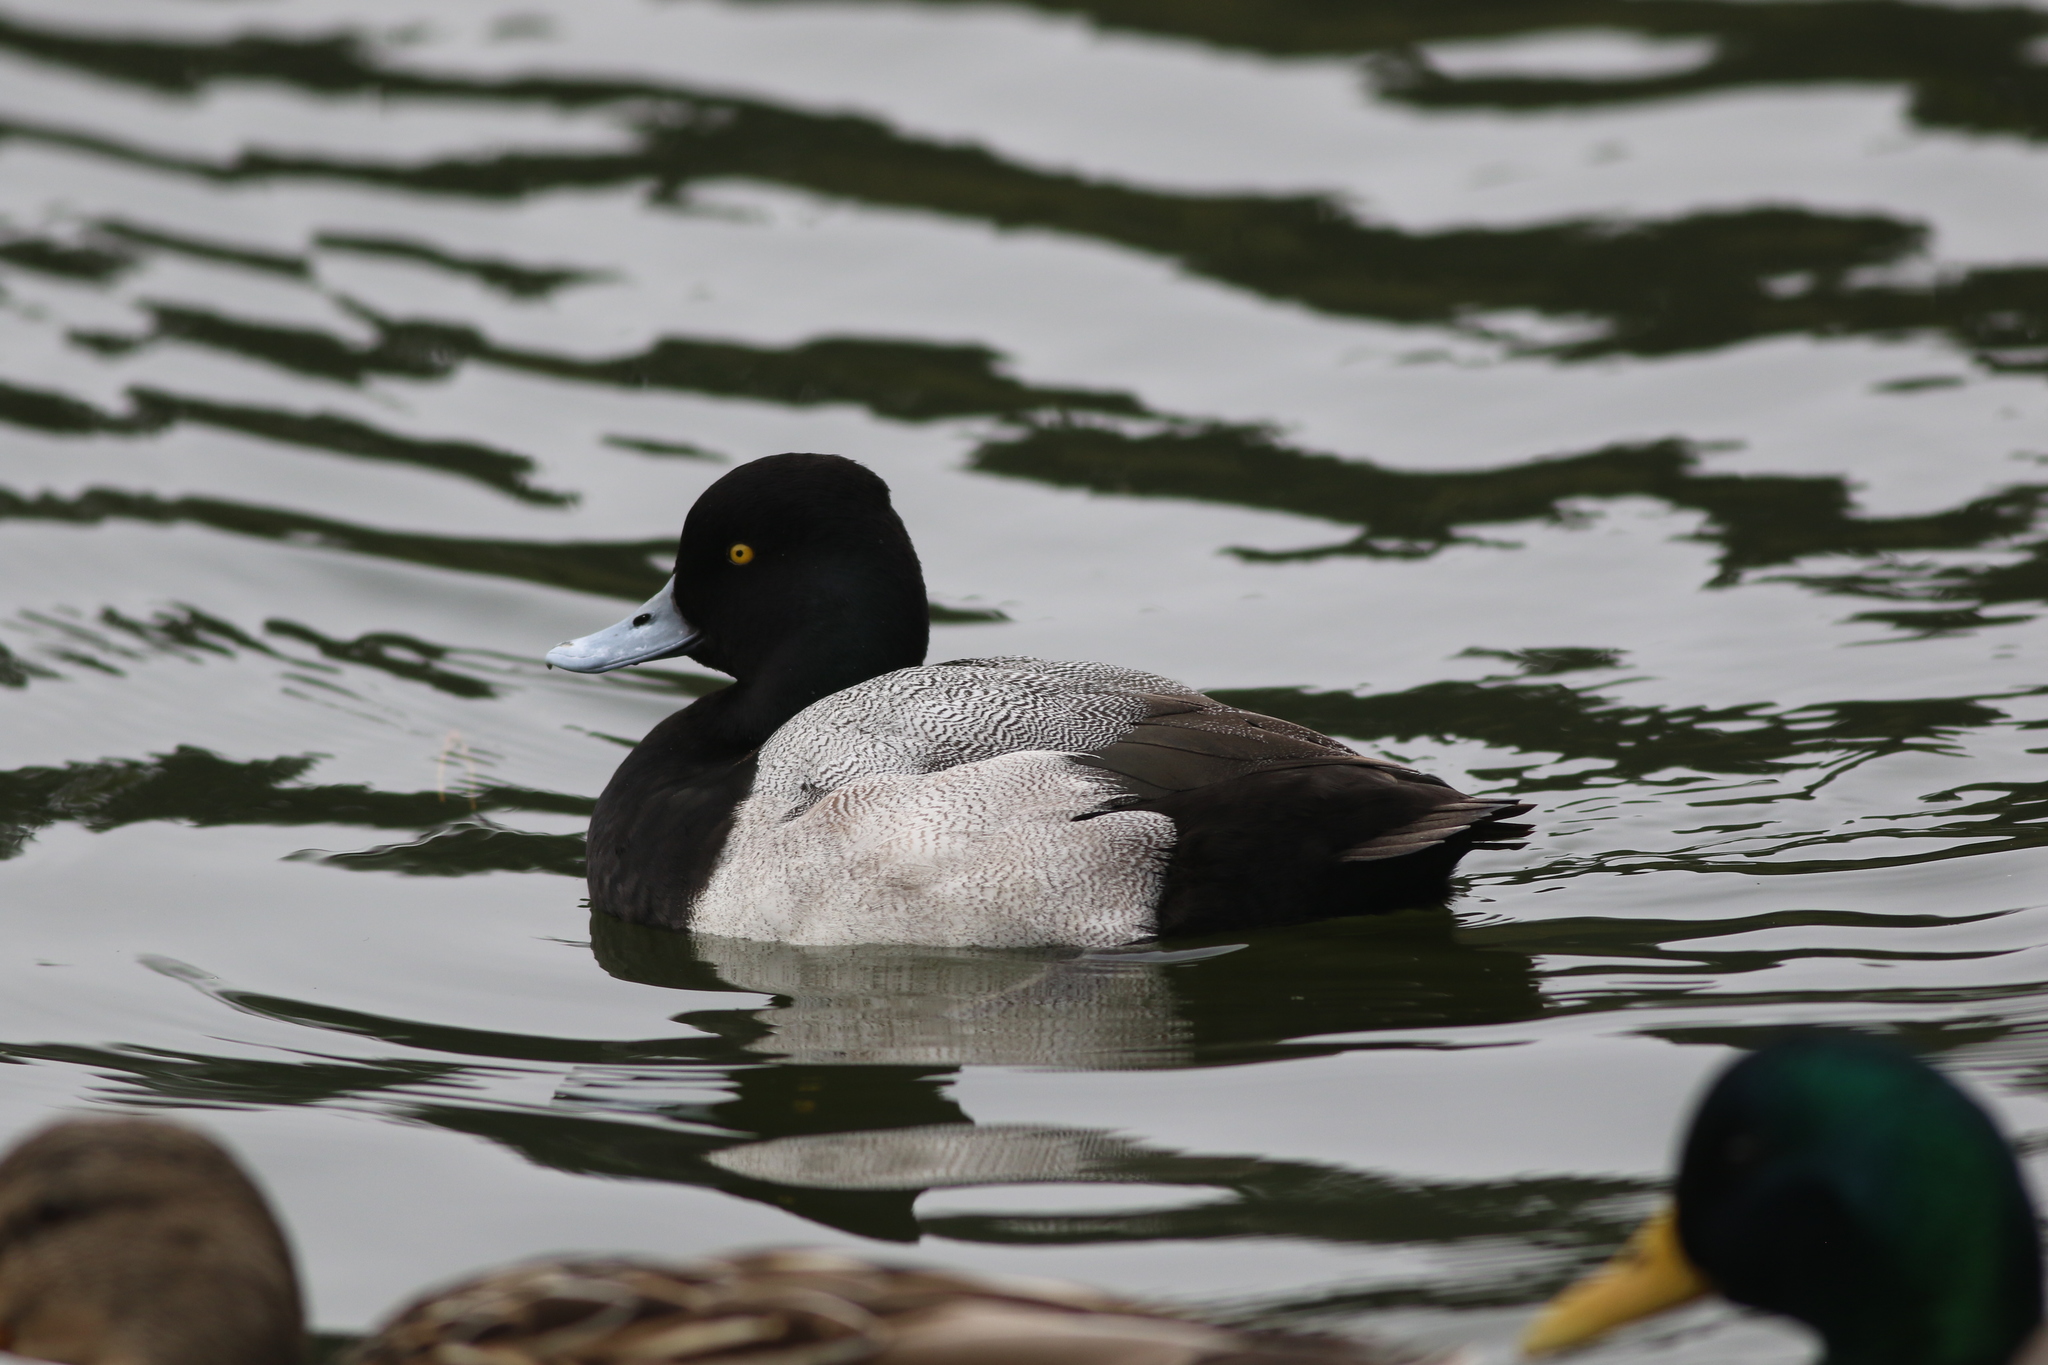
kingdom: Animalia
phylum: Chordata
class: Aves
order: Anseriformes
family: Anatidae
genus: Aythya
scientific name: Aythya affinis
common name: Lesser scaup
